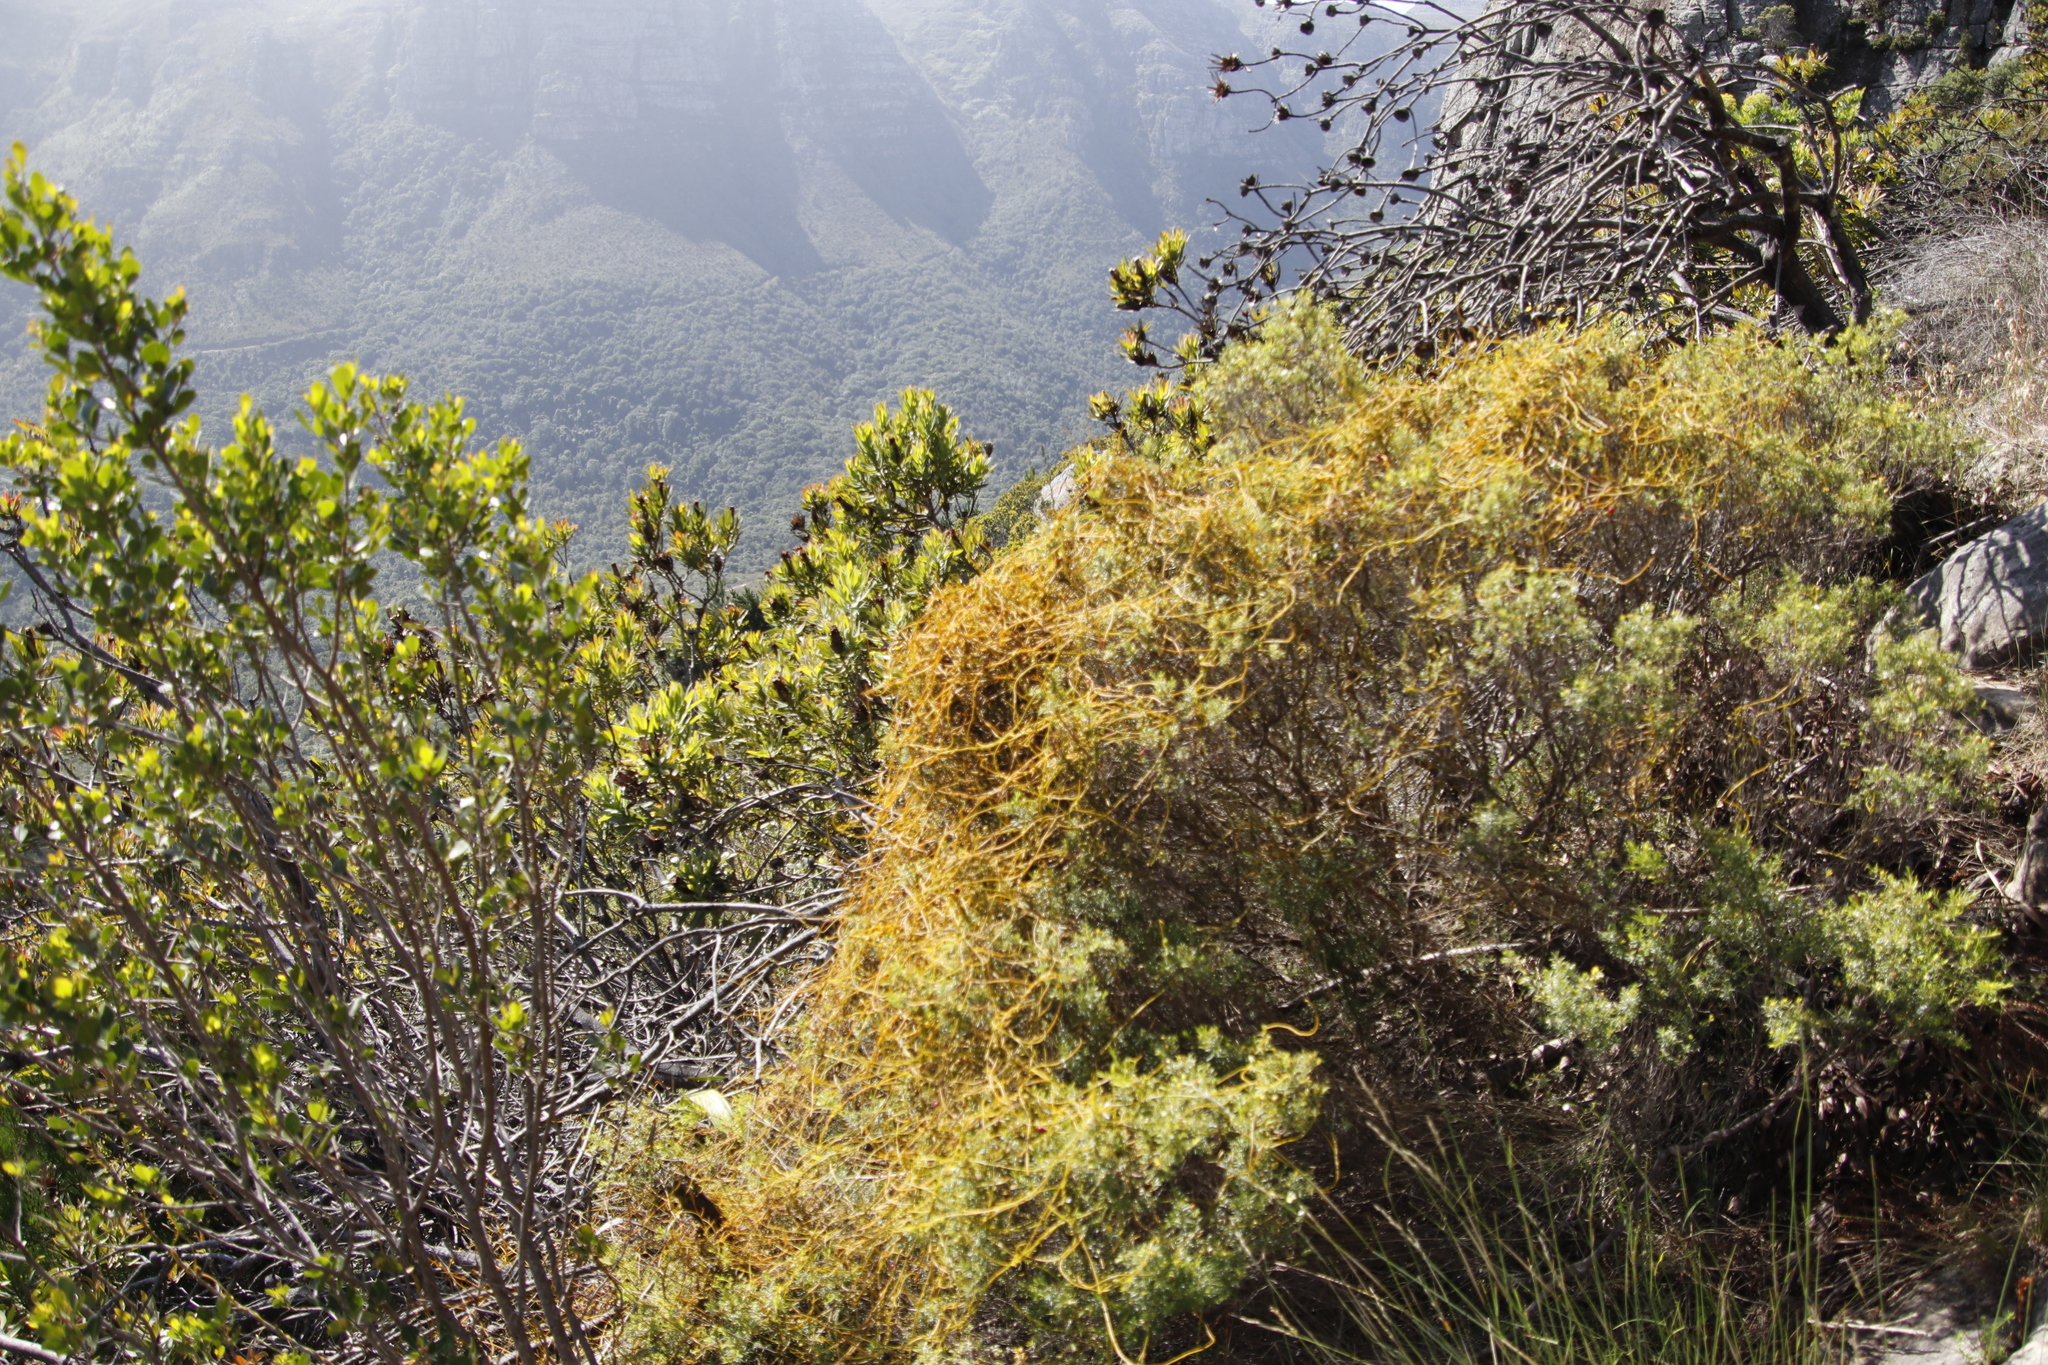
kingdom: Plantae
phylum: Tracheophyta
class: Magnoliopsida
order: Laurales
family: Lauraceae
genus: Cassytha
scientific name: Cassytha ciliolata
